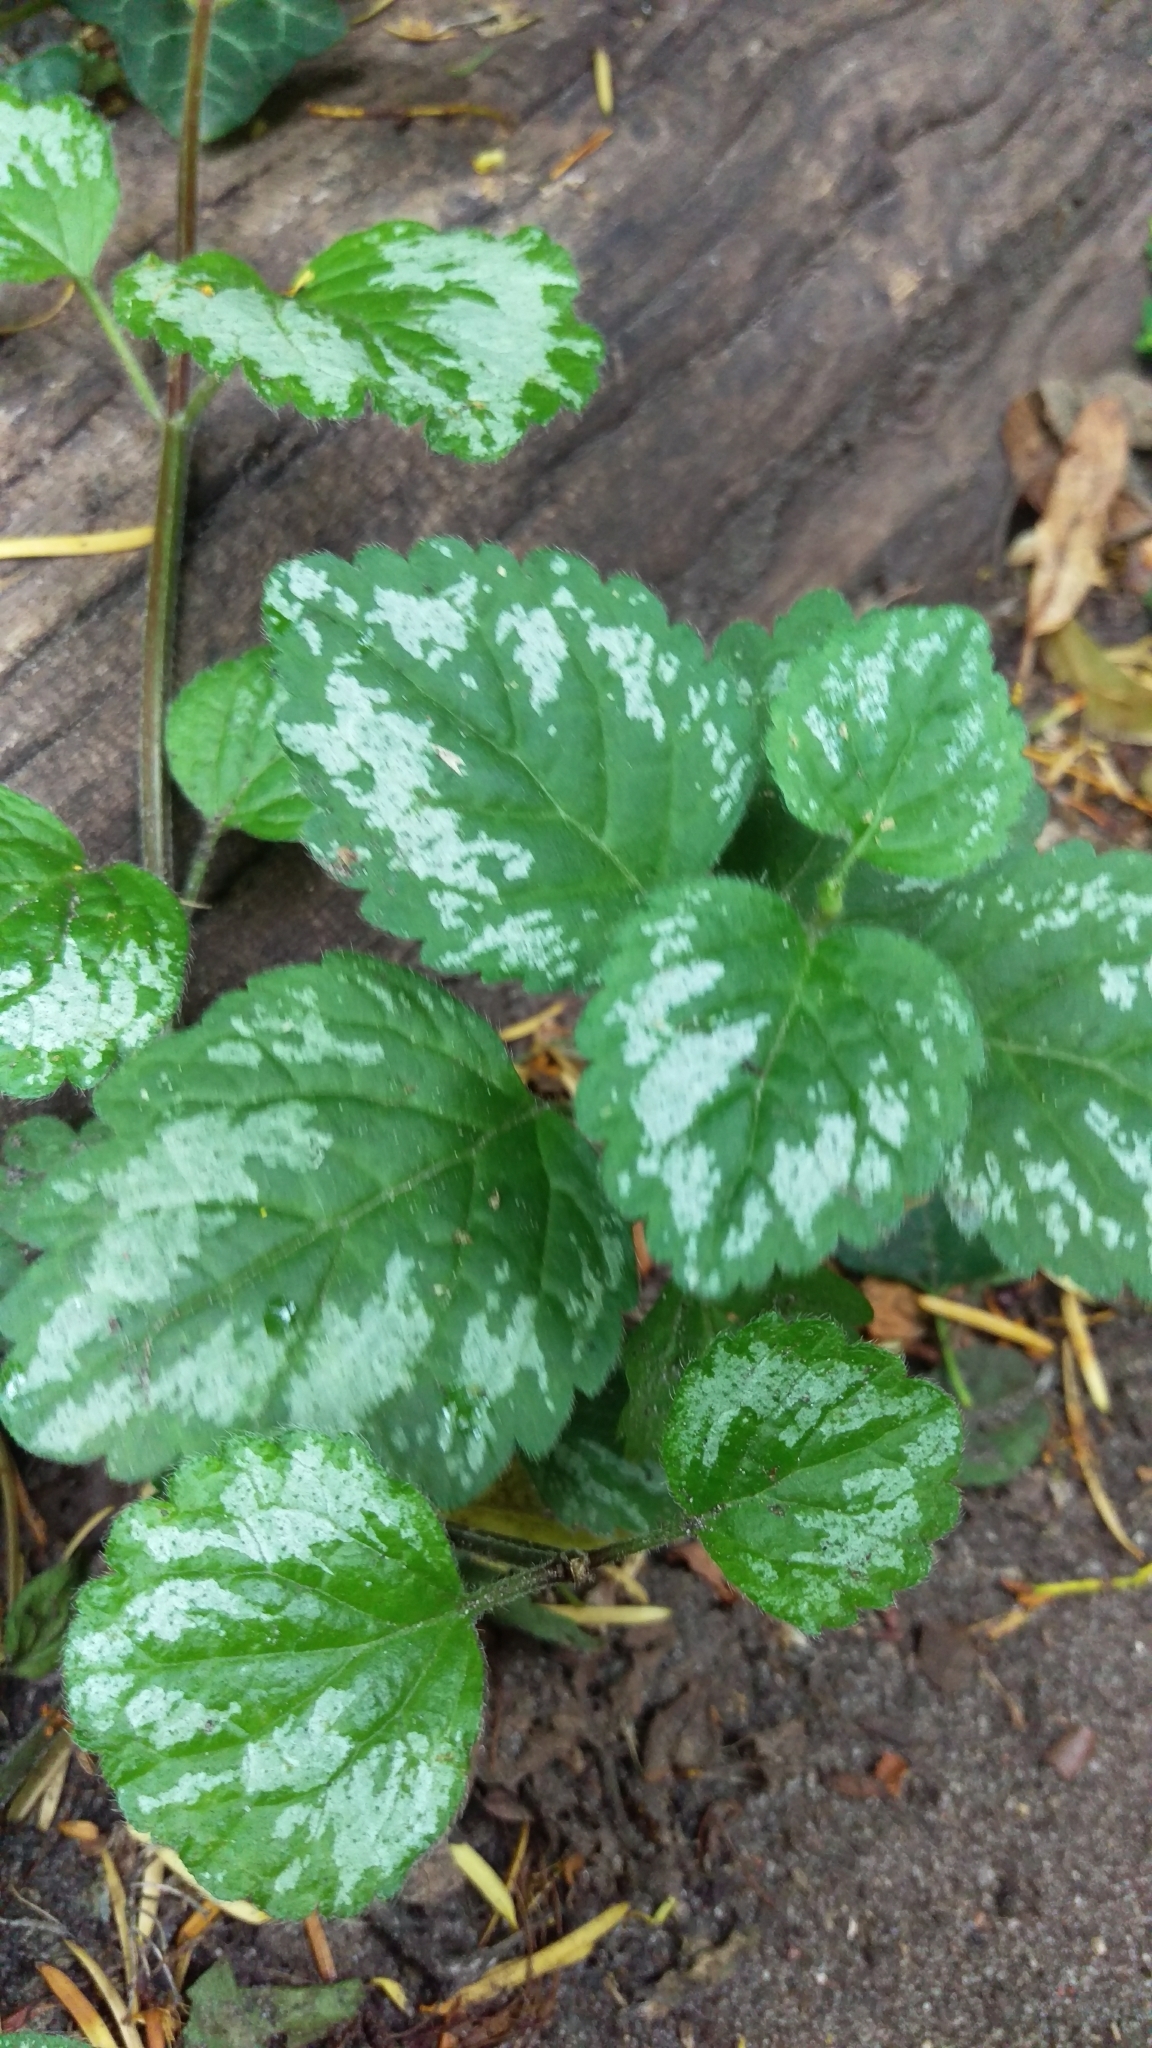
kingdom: Plantae
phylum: Tracheophyta
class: Magnoliopsida
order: Lamiales
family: Lamiaceae
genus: Lamium
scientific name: Lamium galeobdolon
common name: Yellow archangel
